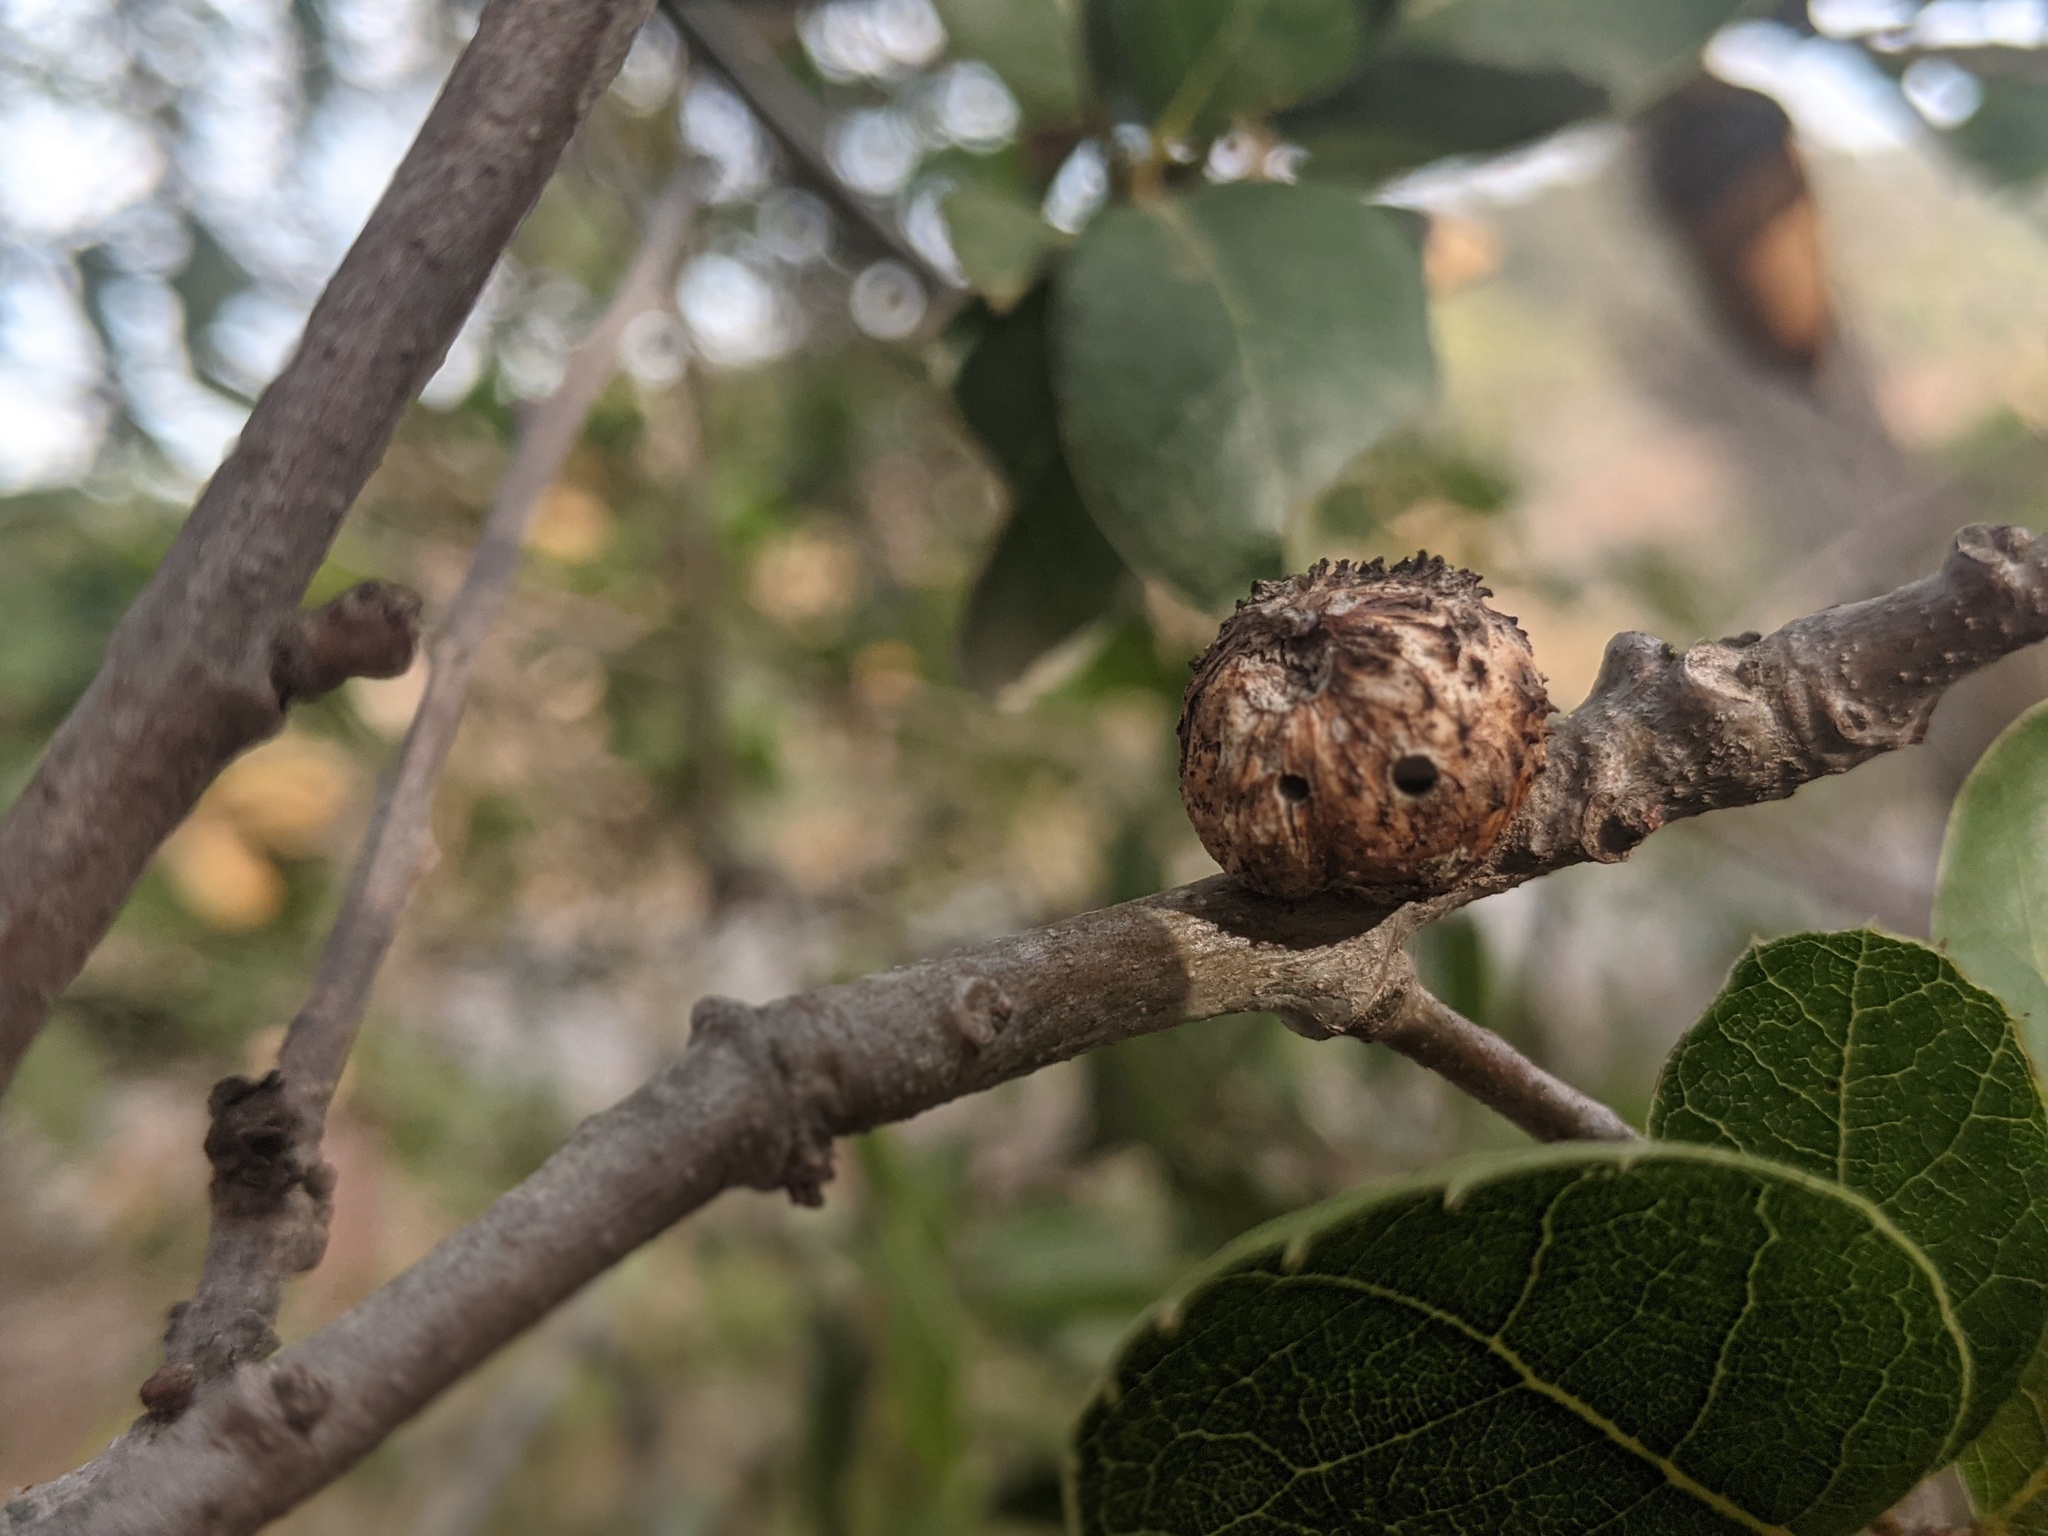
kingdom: Animalia
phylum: Arthropoda
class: Insecta
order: Hymenoptera
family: Cynipidae
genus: Amphibolips
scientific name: Amphibolips quercuspomiformis
